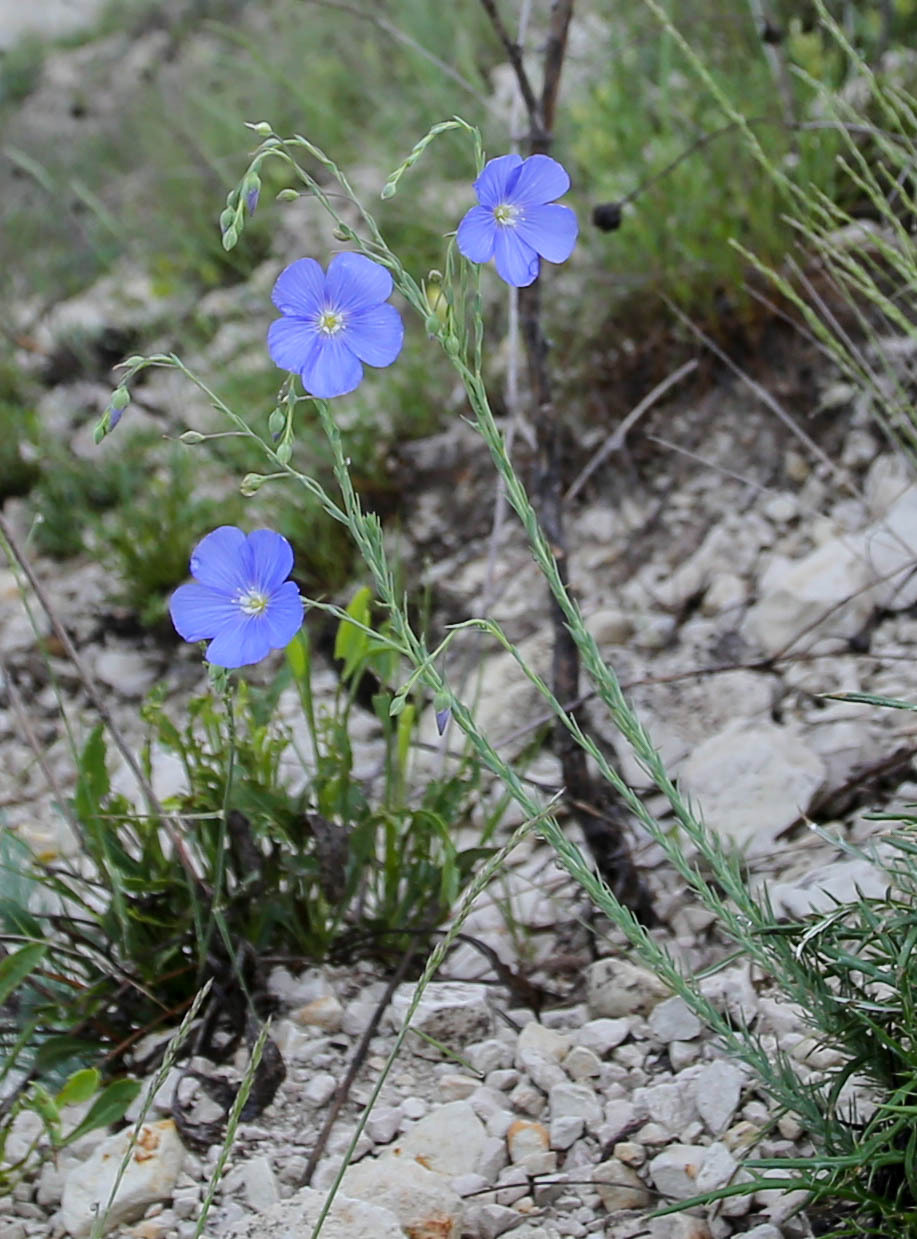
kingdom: Plantae
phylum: Tracheophyta
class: Magnoliopsida
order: Malpighiales
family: Linaceae
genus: Linum
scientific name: Linum austriacum
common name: Austrian flax
